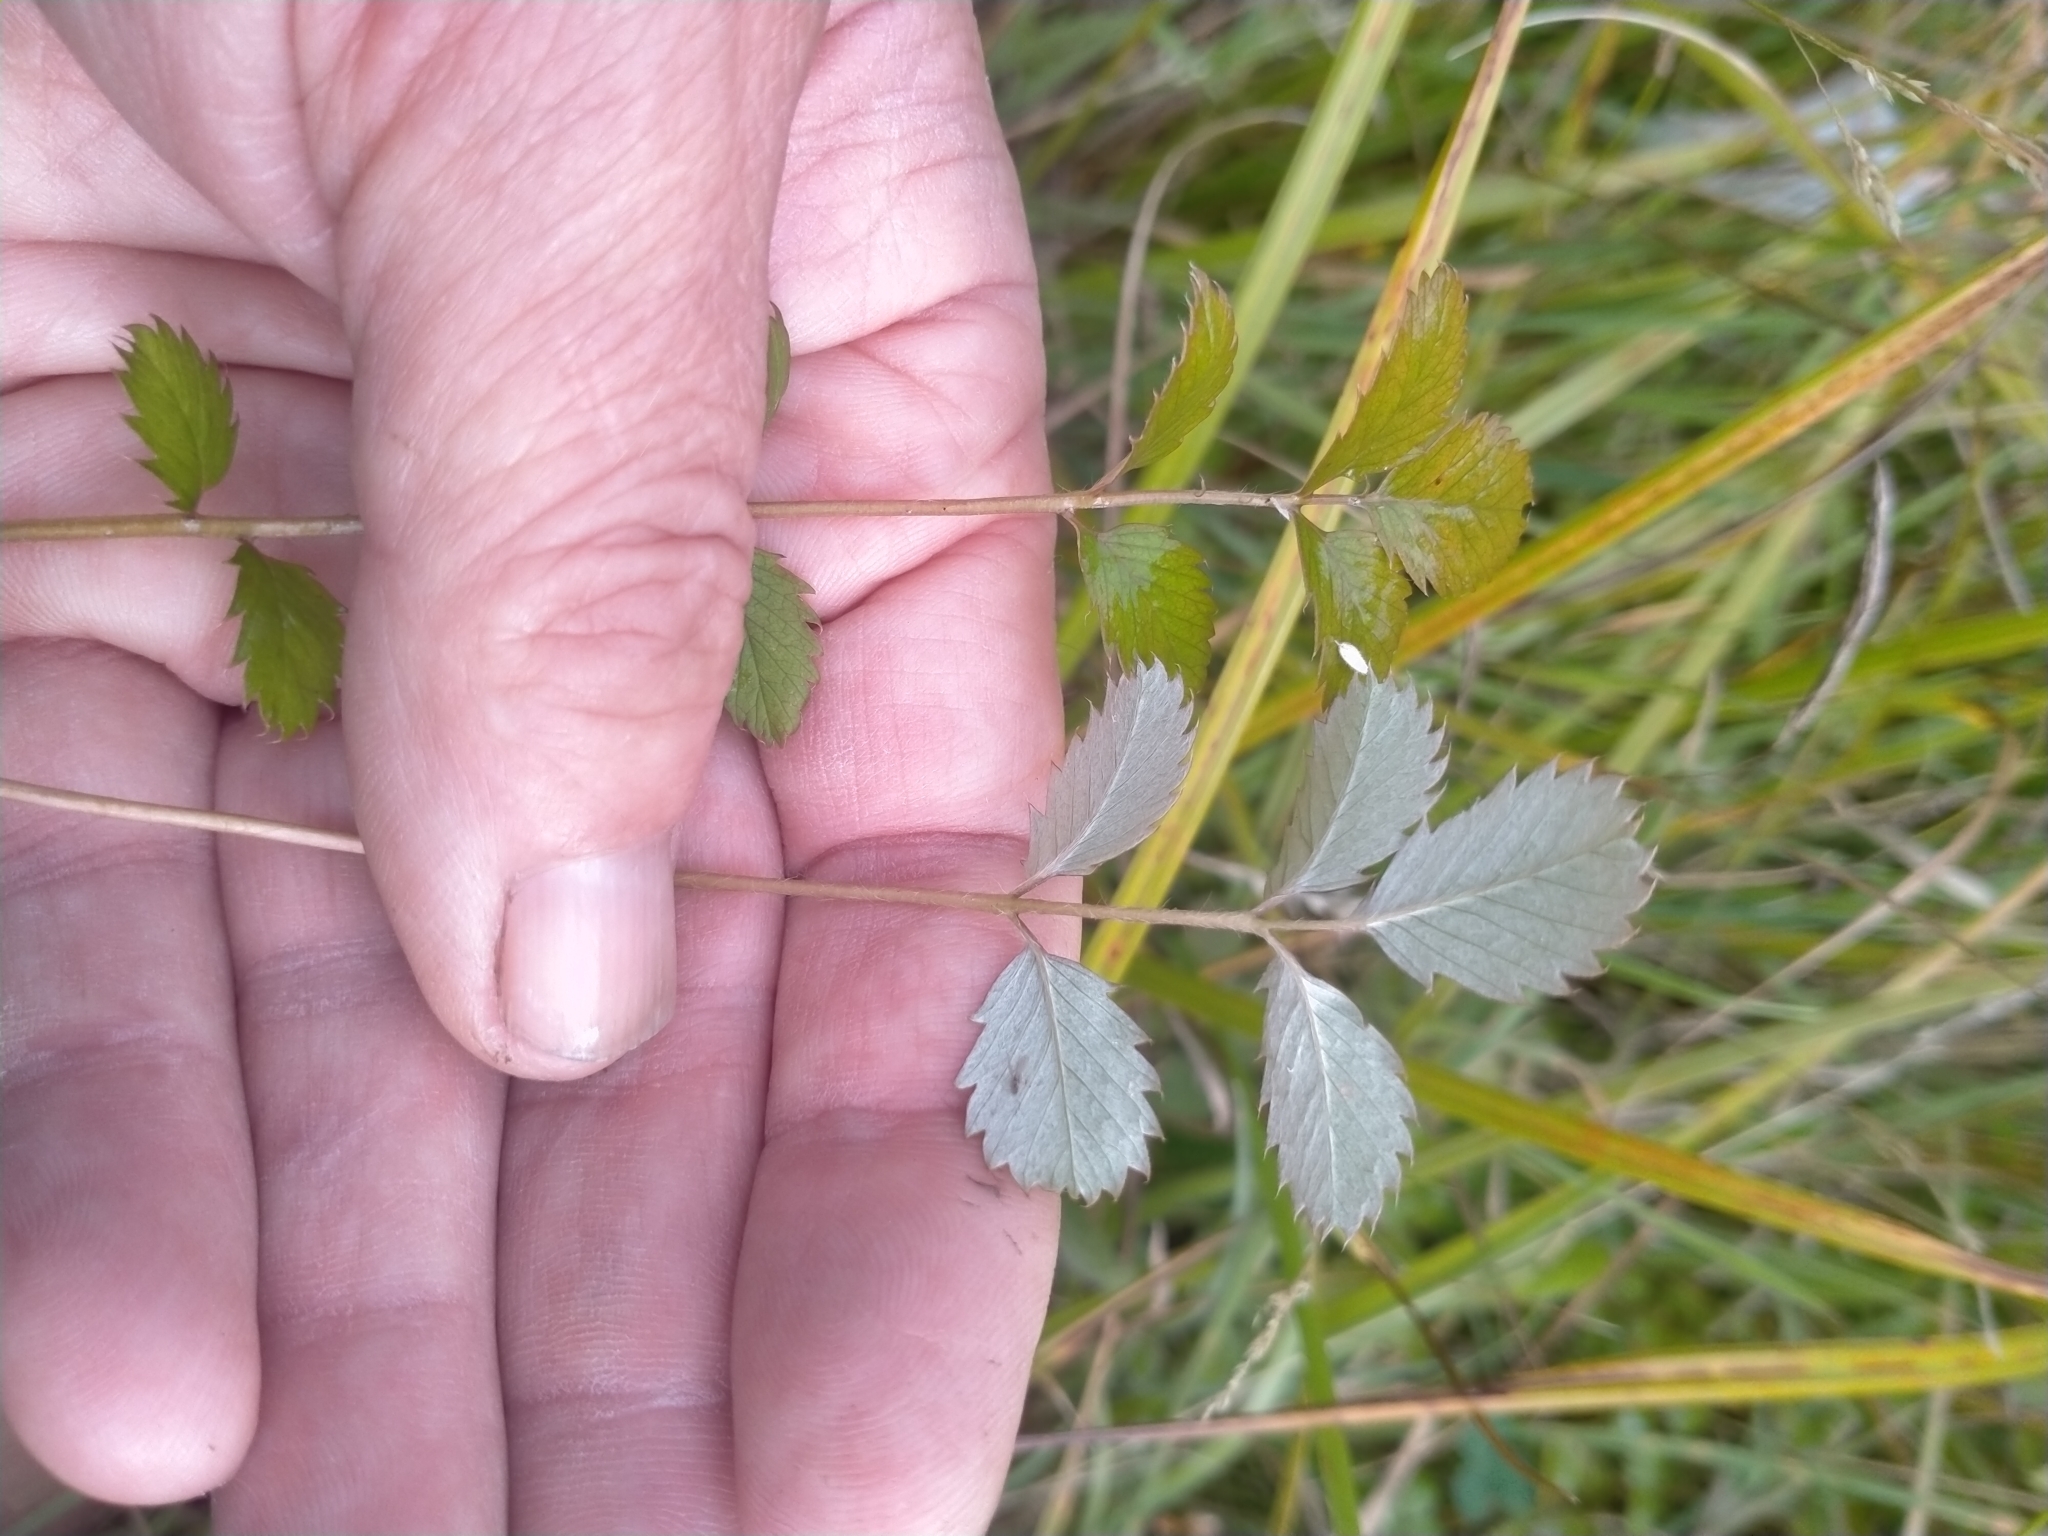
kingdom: Plantae
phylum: Tracheophyta
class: Magnoliopsida
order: Rosales
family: Rosaceae
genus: Argentina
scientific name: Argentina anserinoides
